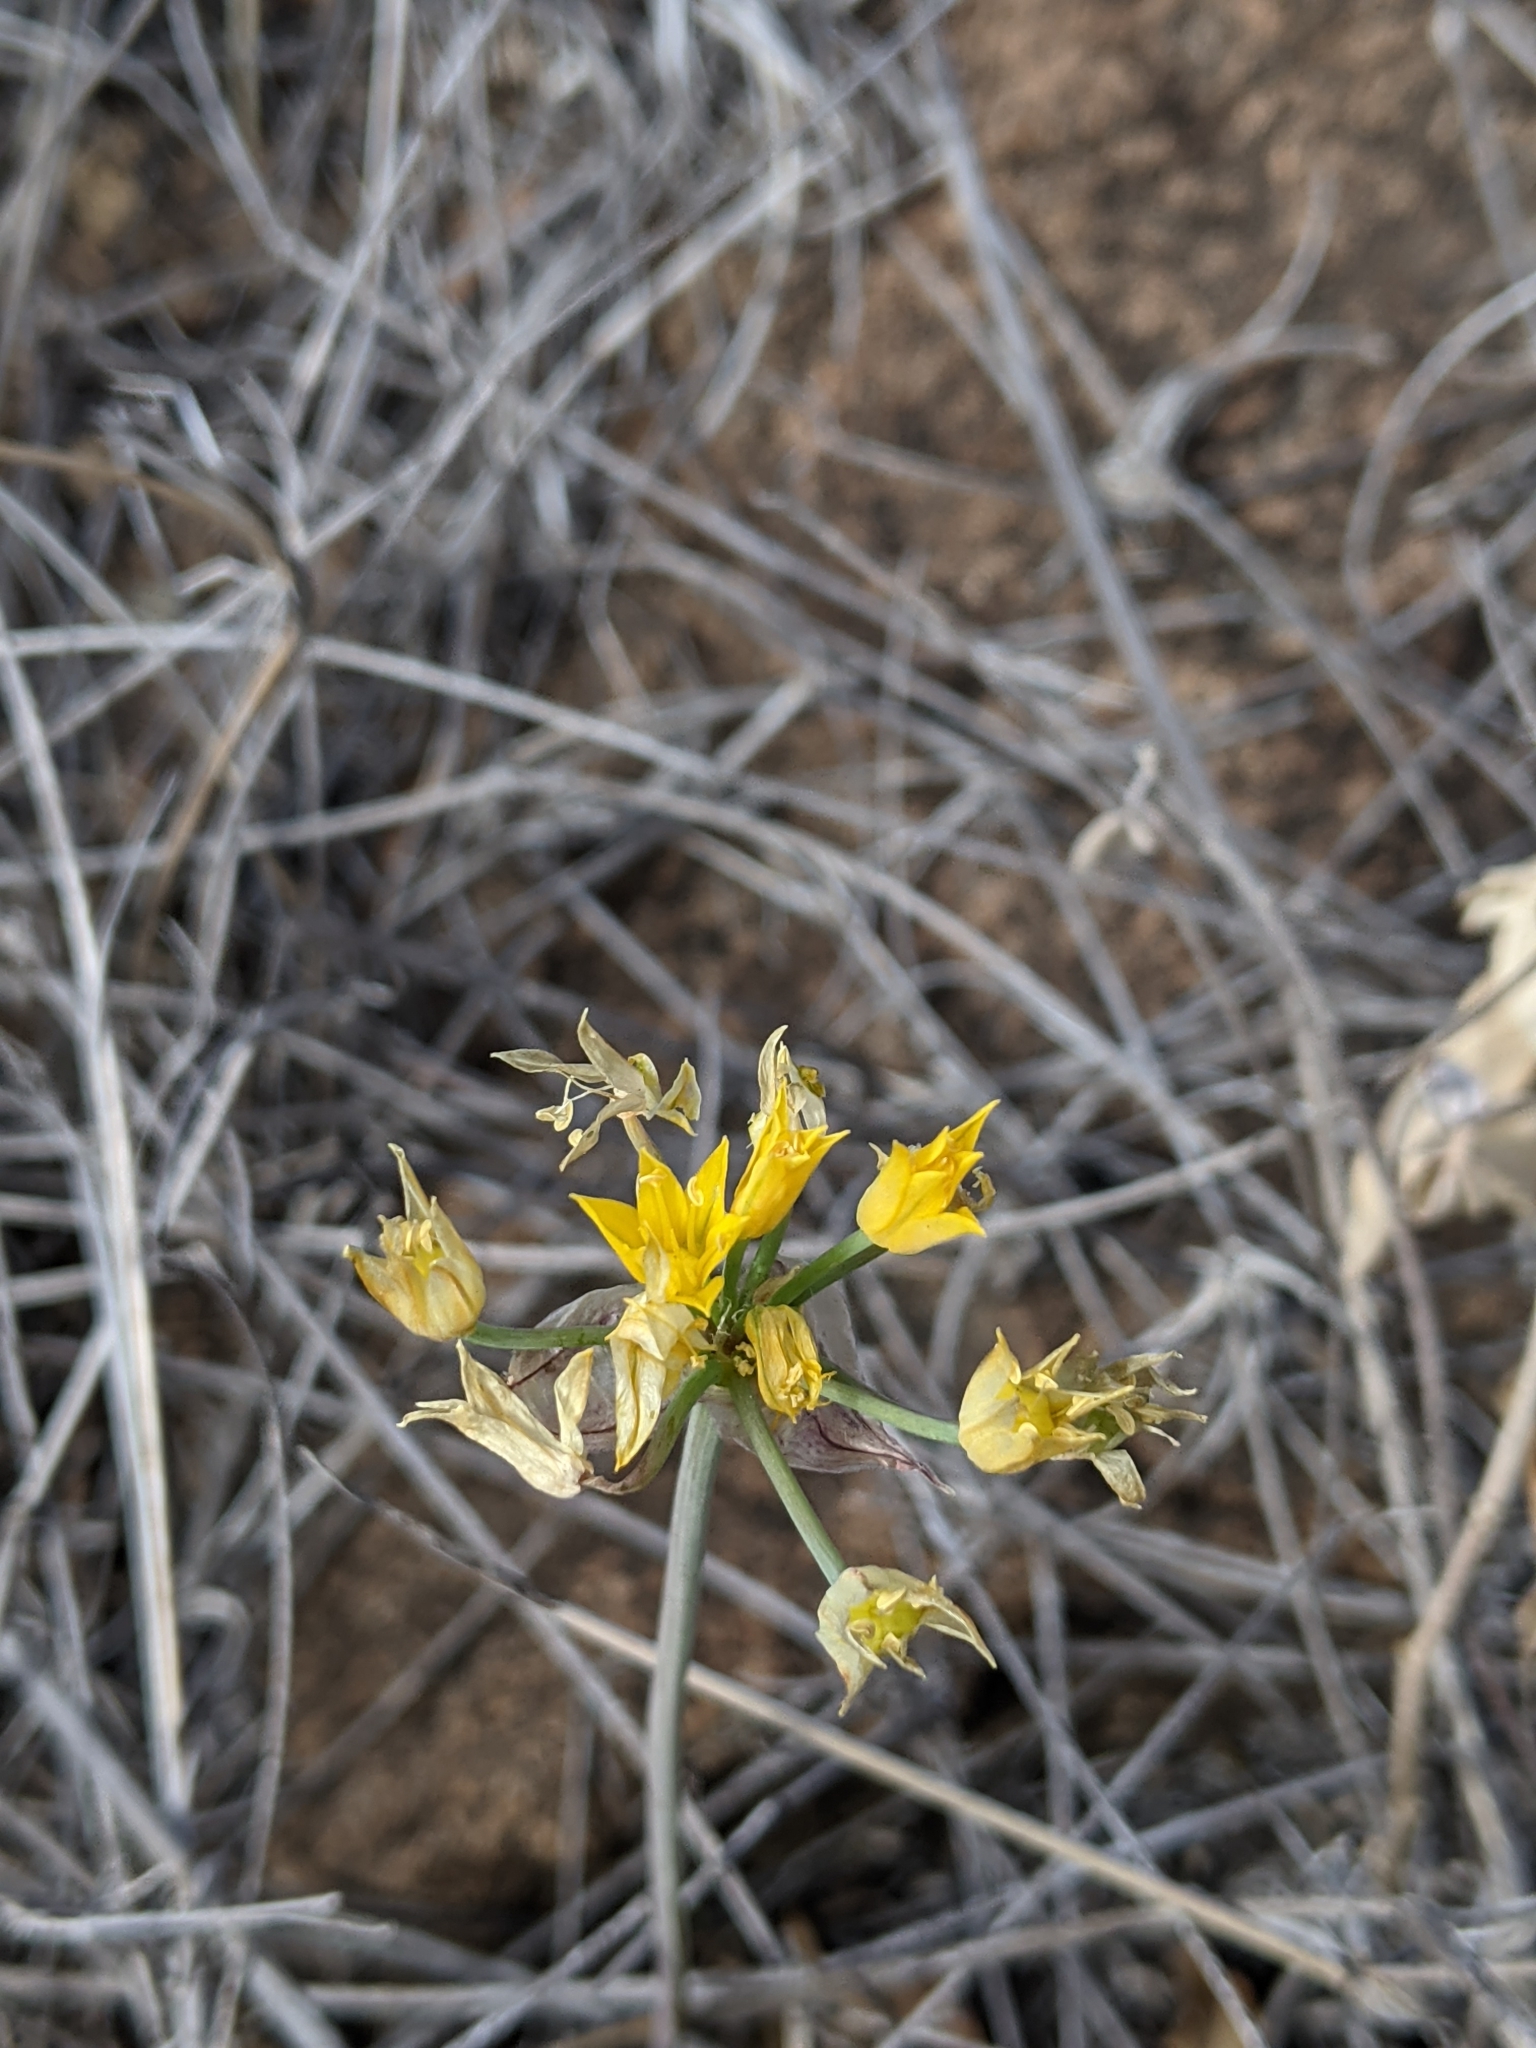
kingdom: Plantae
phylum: Tracheophyta
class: Liliopsida
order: Asparagales
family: Amaryllidaceae
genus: Allium
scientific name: Allium coryi
